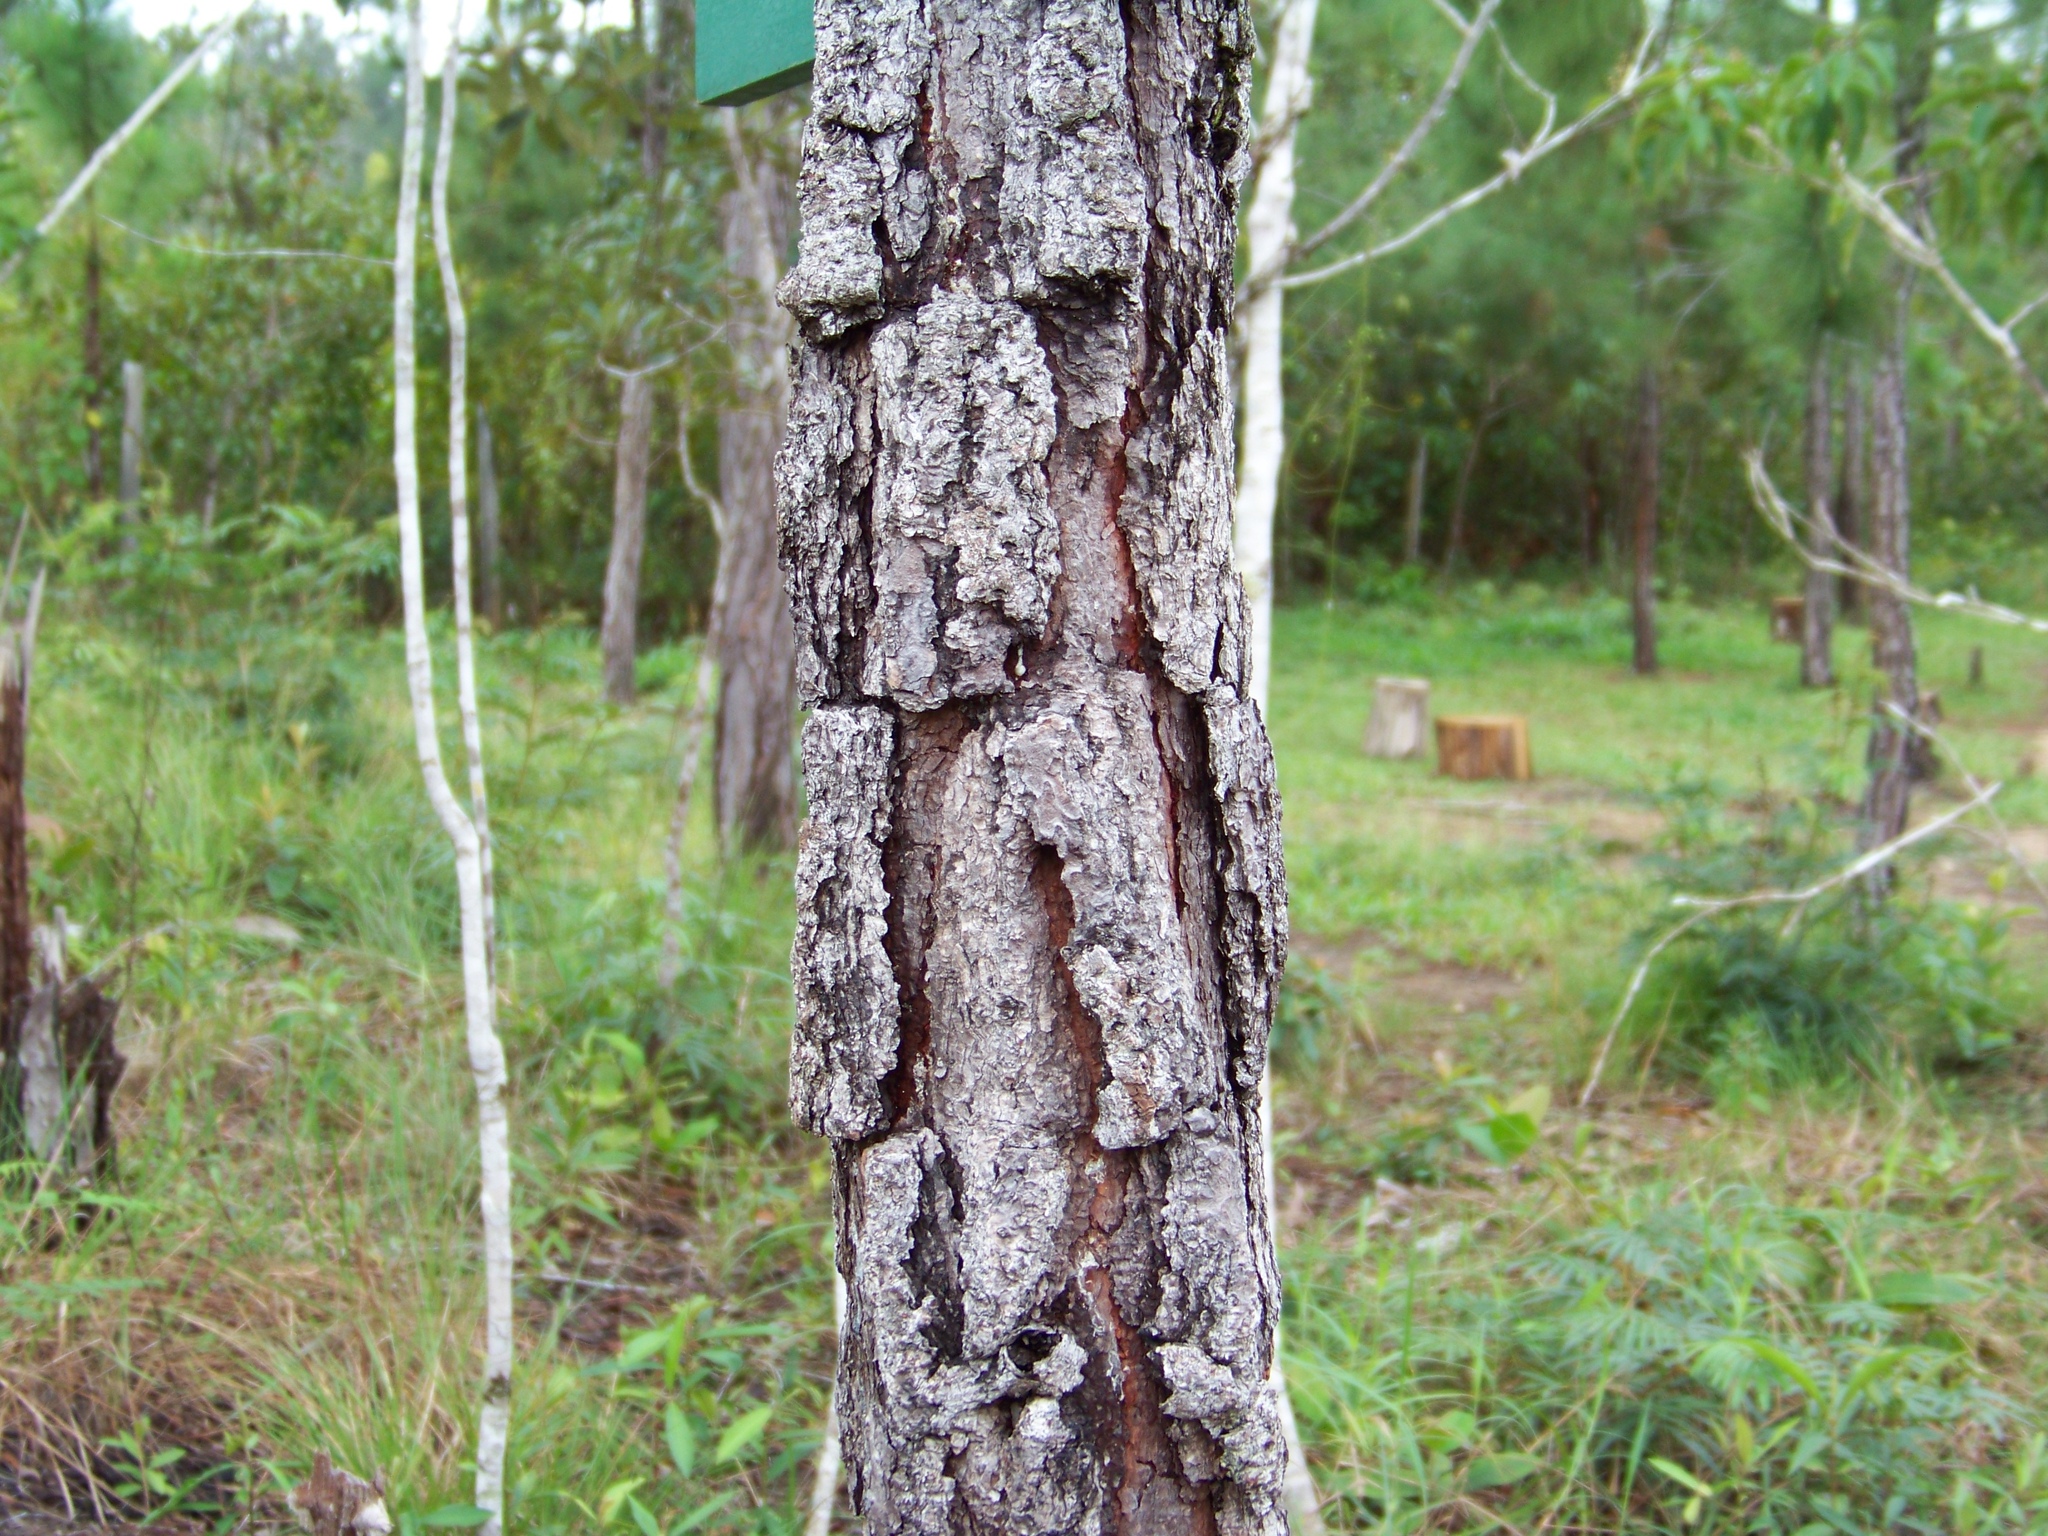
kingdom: Plantae
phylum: Tracheophyta
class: Pinopsida
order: Pinales
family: Pinaceae
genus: Pinus
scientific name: Pinus caribaea
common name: Caribbean pine
